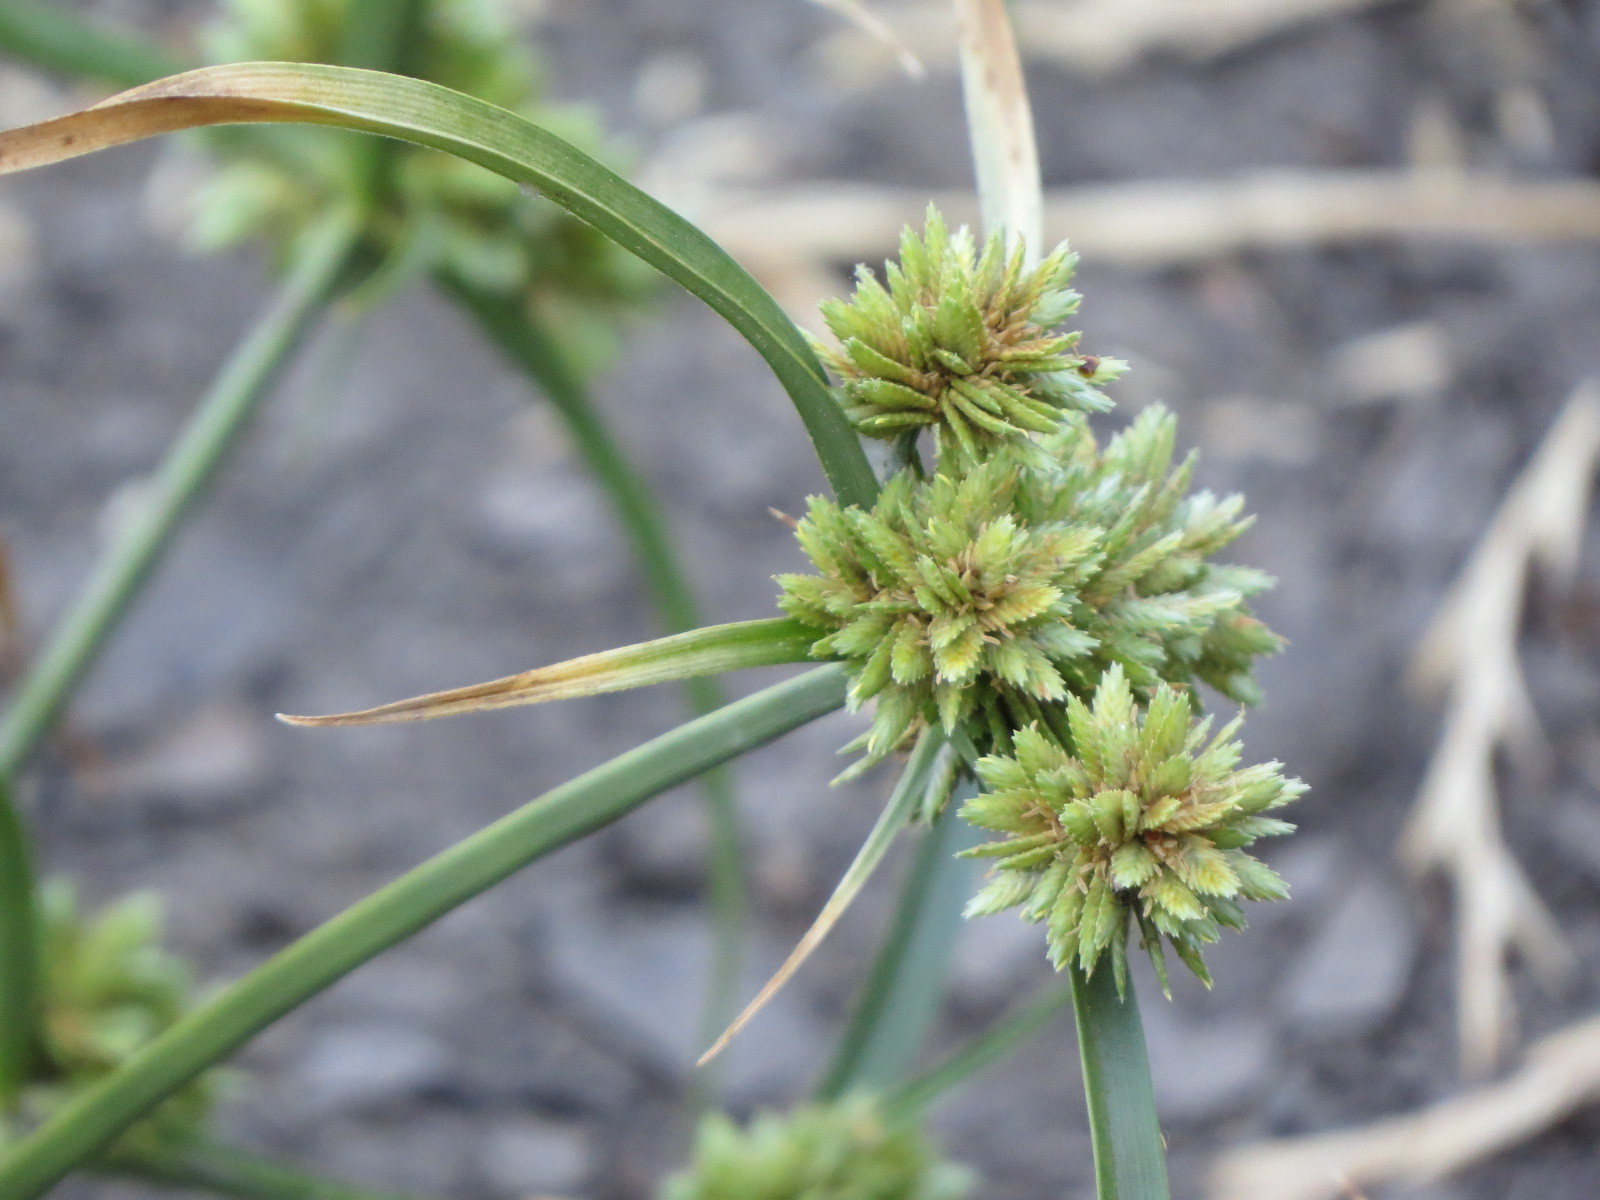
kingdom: Plantae
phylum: Tracheophyta
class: Liliopsida
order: Poales
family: Cyperaceae
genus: Cyperus
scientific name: Cyperus eragrostis
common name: Tall flatsedge
